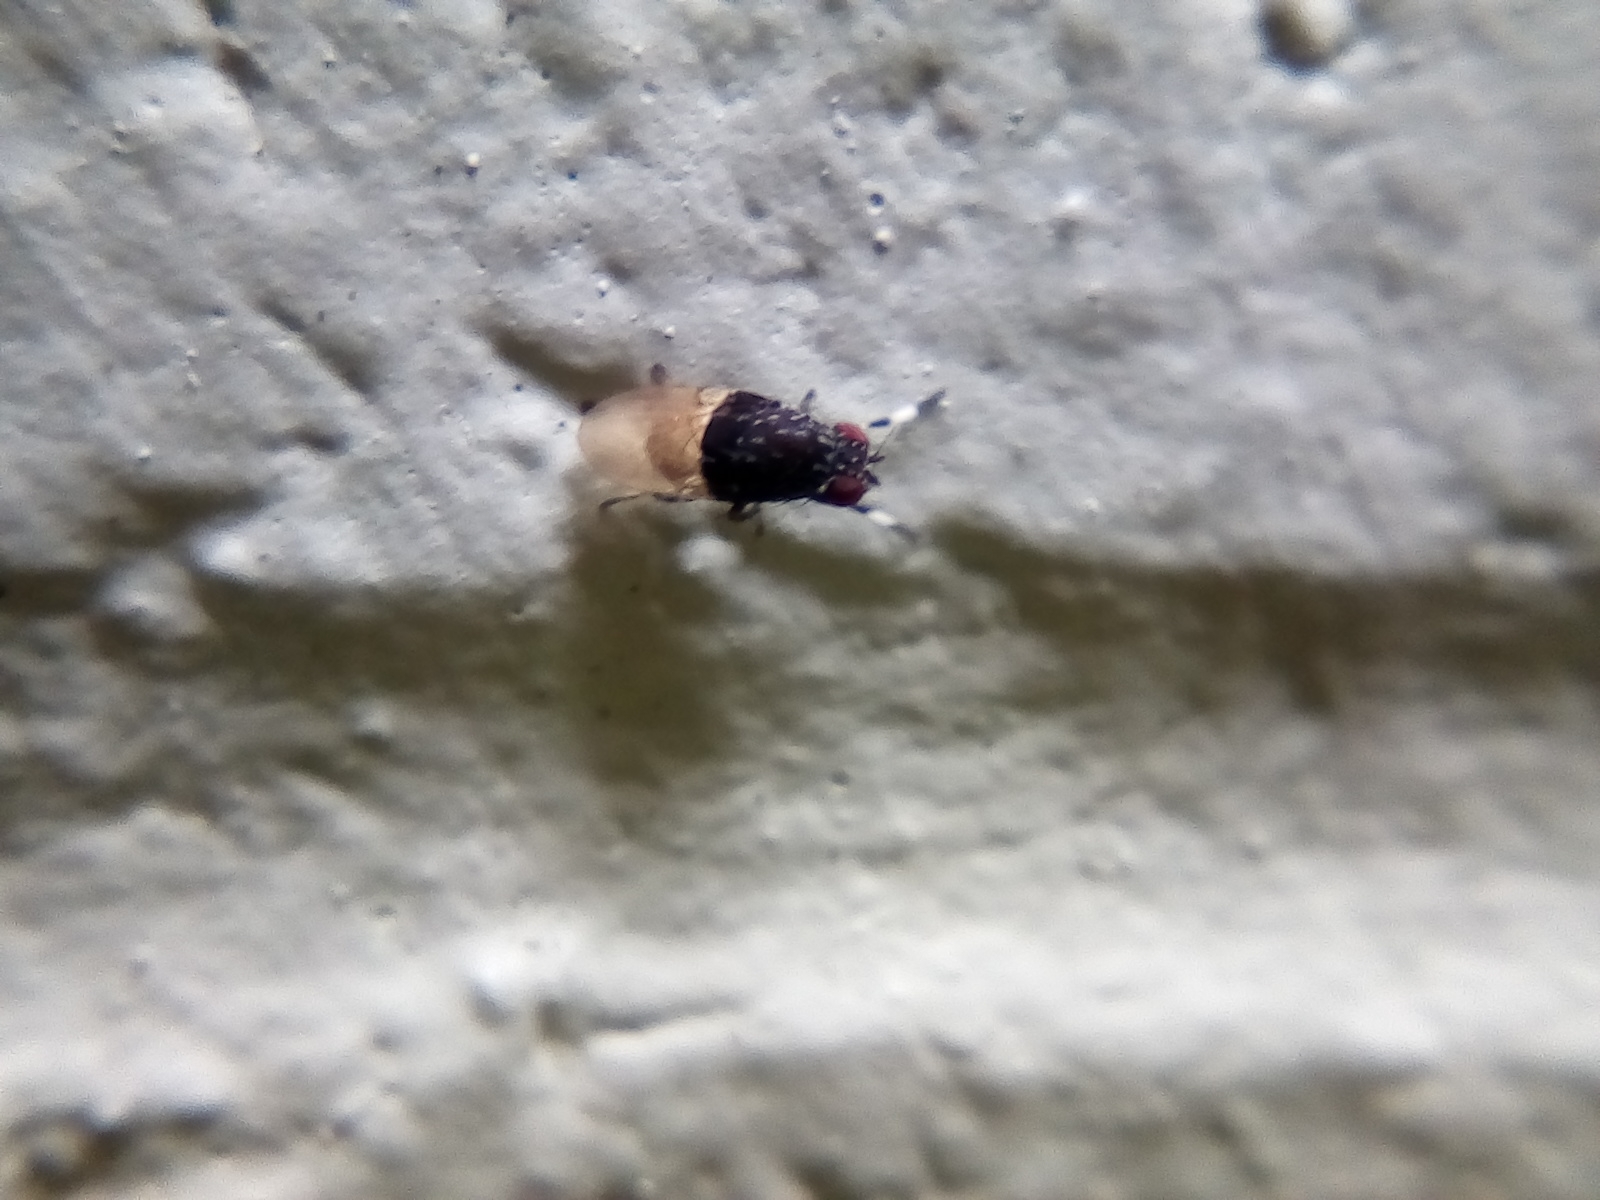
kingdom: Animalia
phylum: Arthropoda
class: Insecta
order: Diptera
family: Heleomyzidae
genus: Allophylina
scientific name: Allophylina albitarsis
